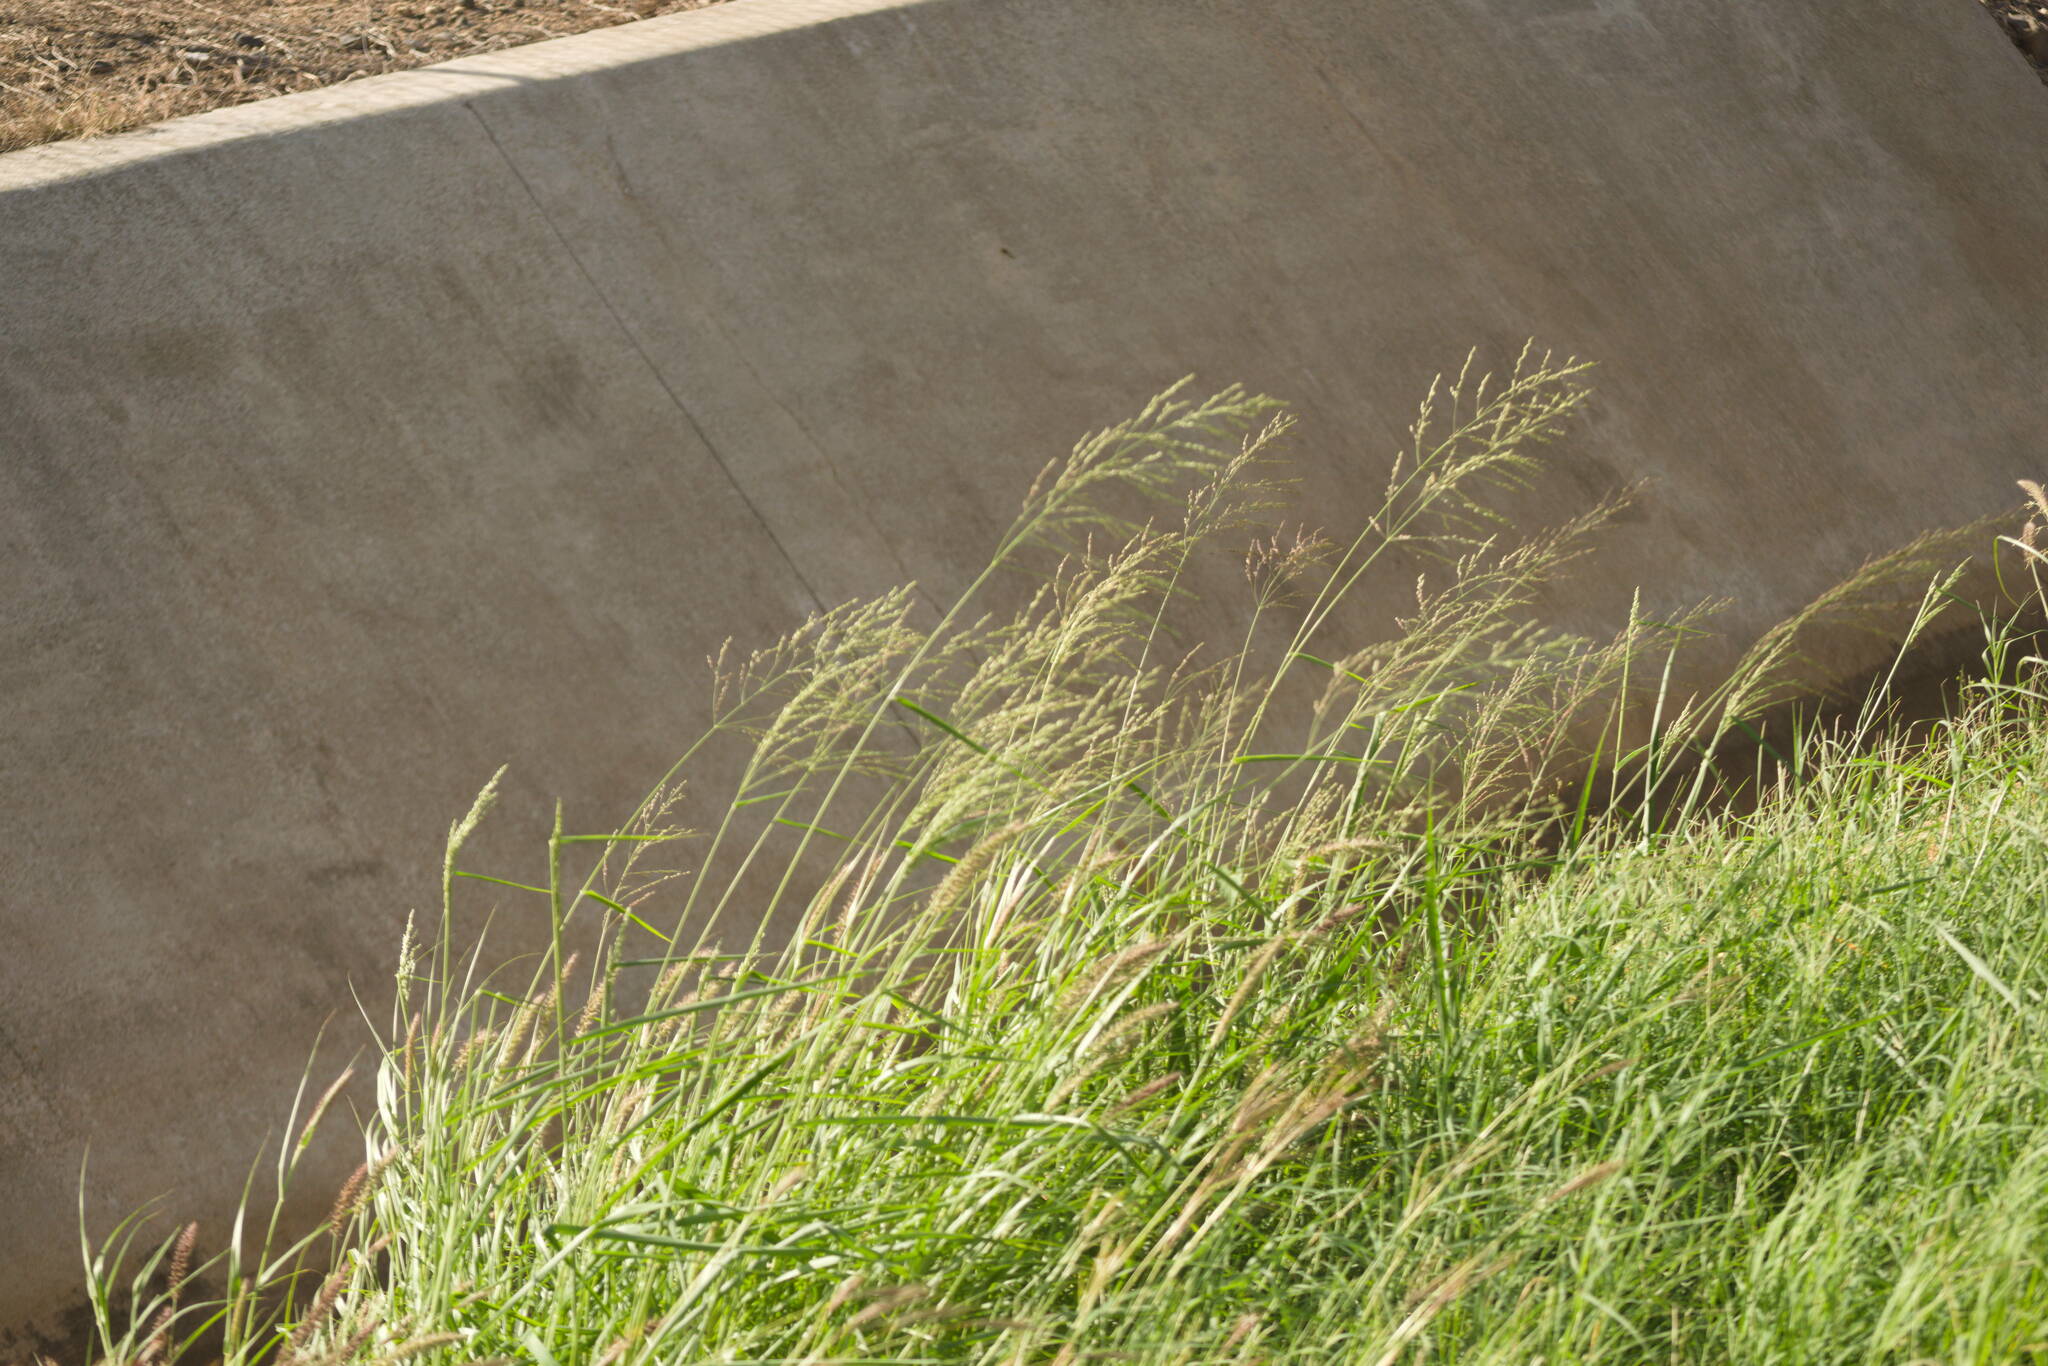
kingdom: Plantae
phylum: Tracheophyta
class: Liliopsida
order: Poales
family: Poaceae
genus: Megathyrsus
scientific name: Megathyrsus maximus
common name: Guineagrass
